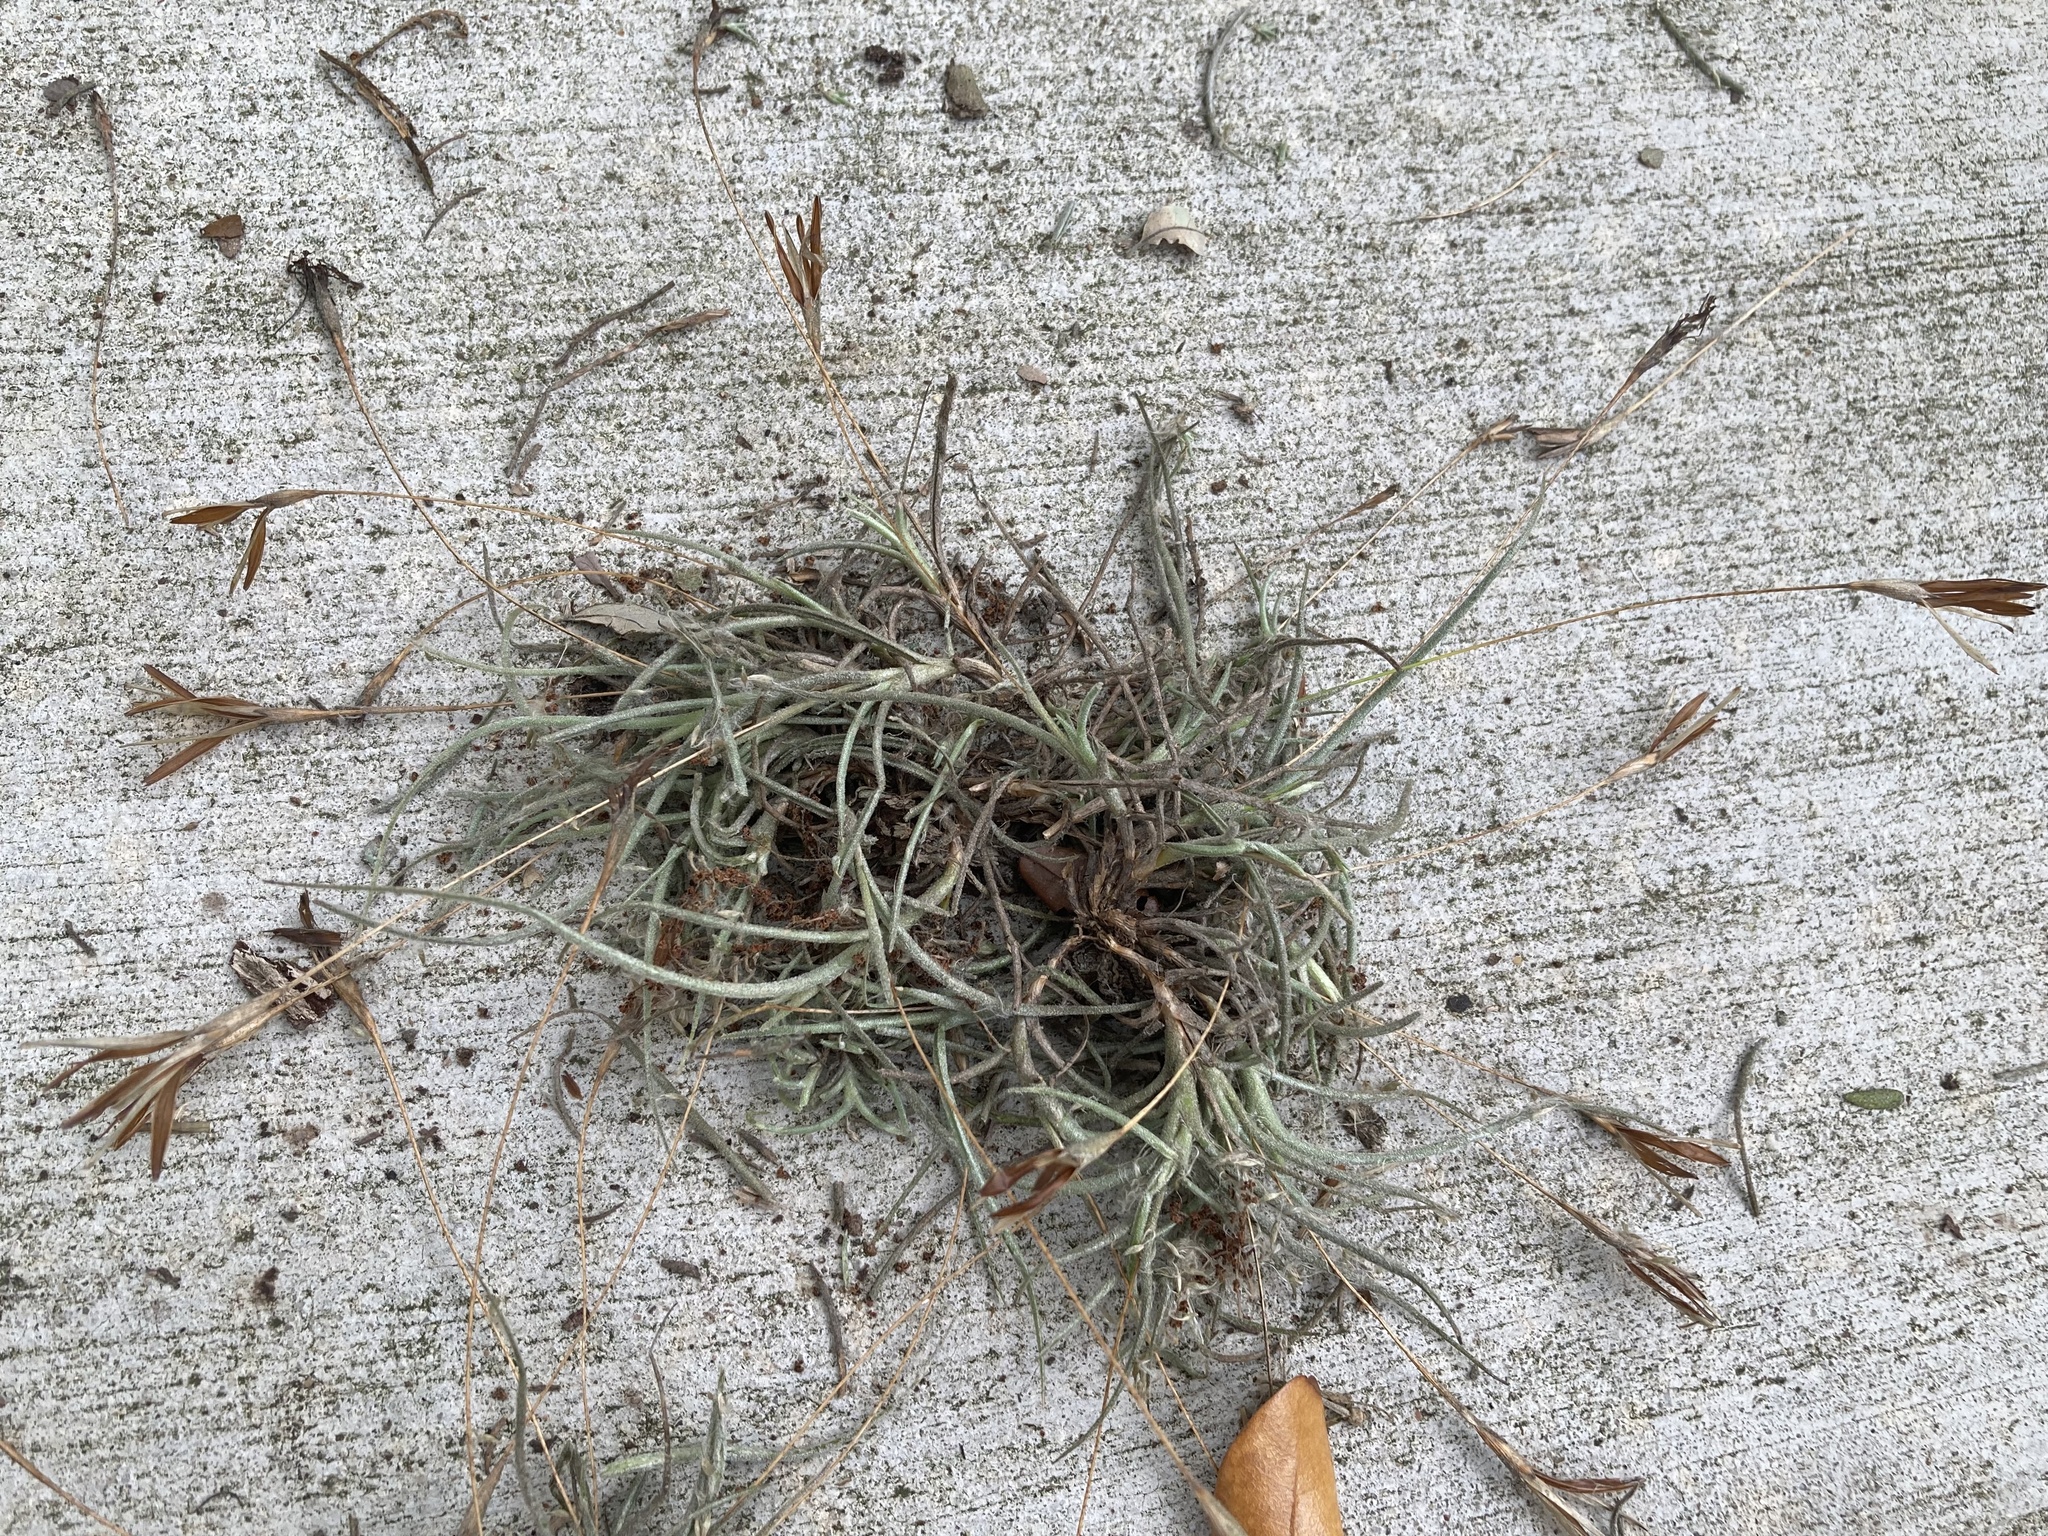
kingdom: Plantae
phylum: Tracheophyta
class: Liliopsida
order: Poales
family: Bromeliaceae
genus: Tillandsia
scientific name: Tillandsia recurvata
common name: Small ballmoss
